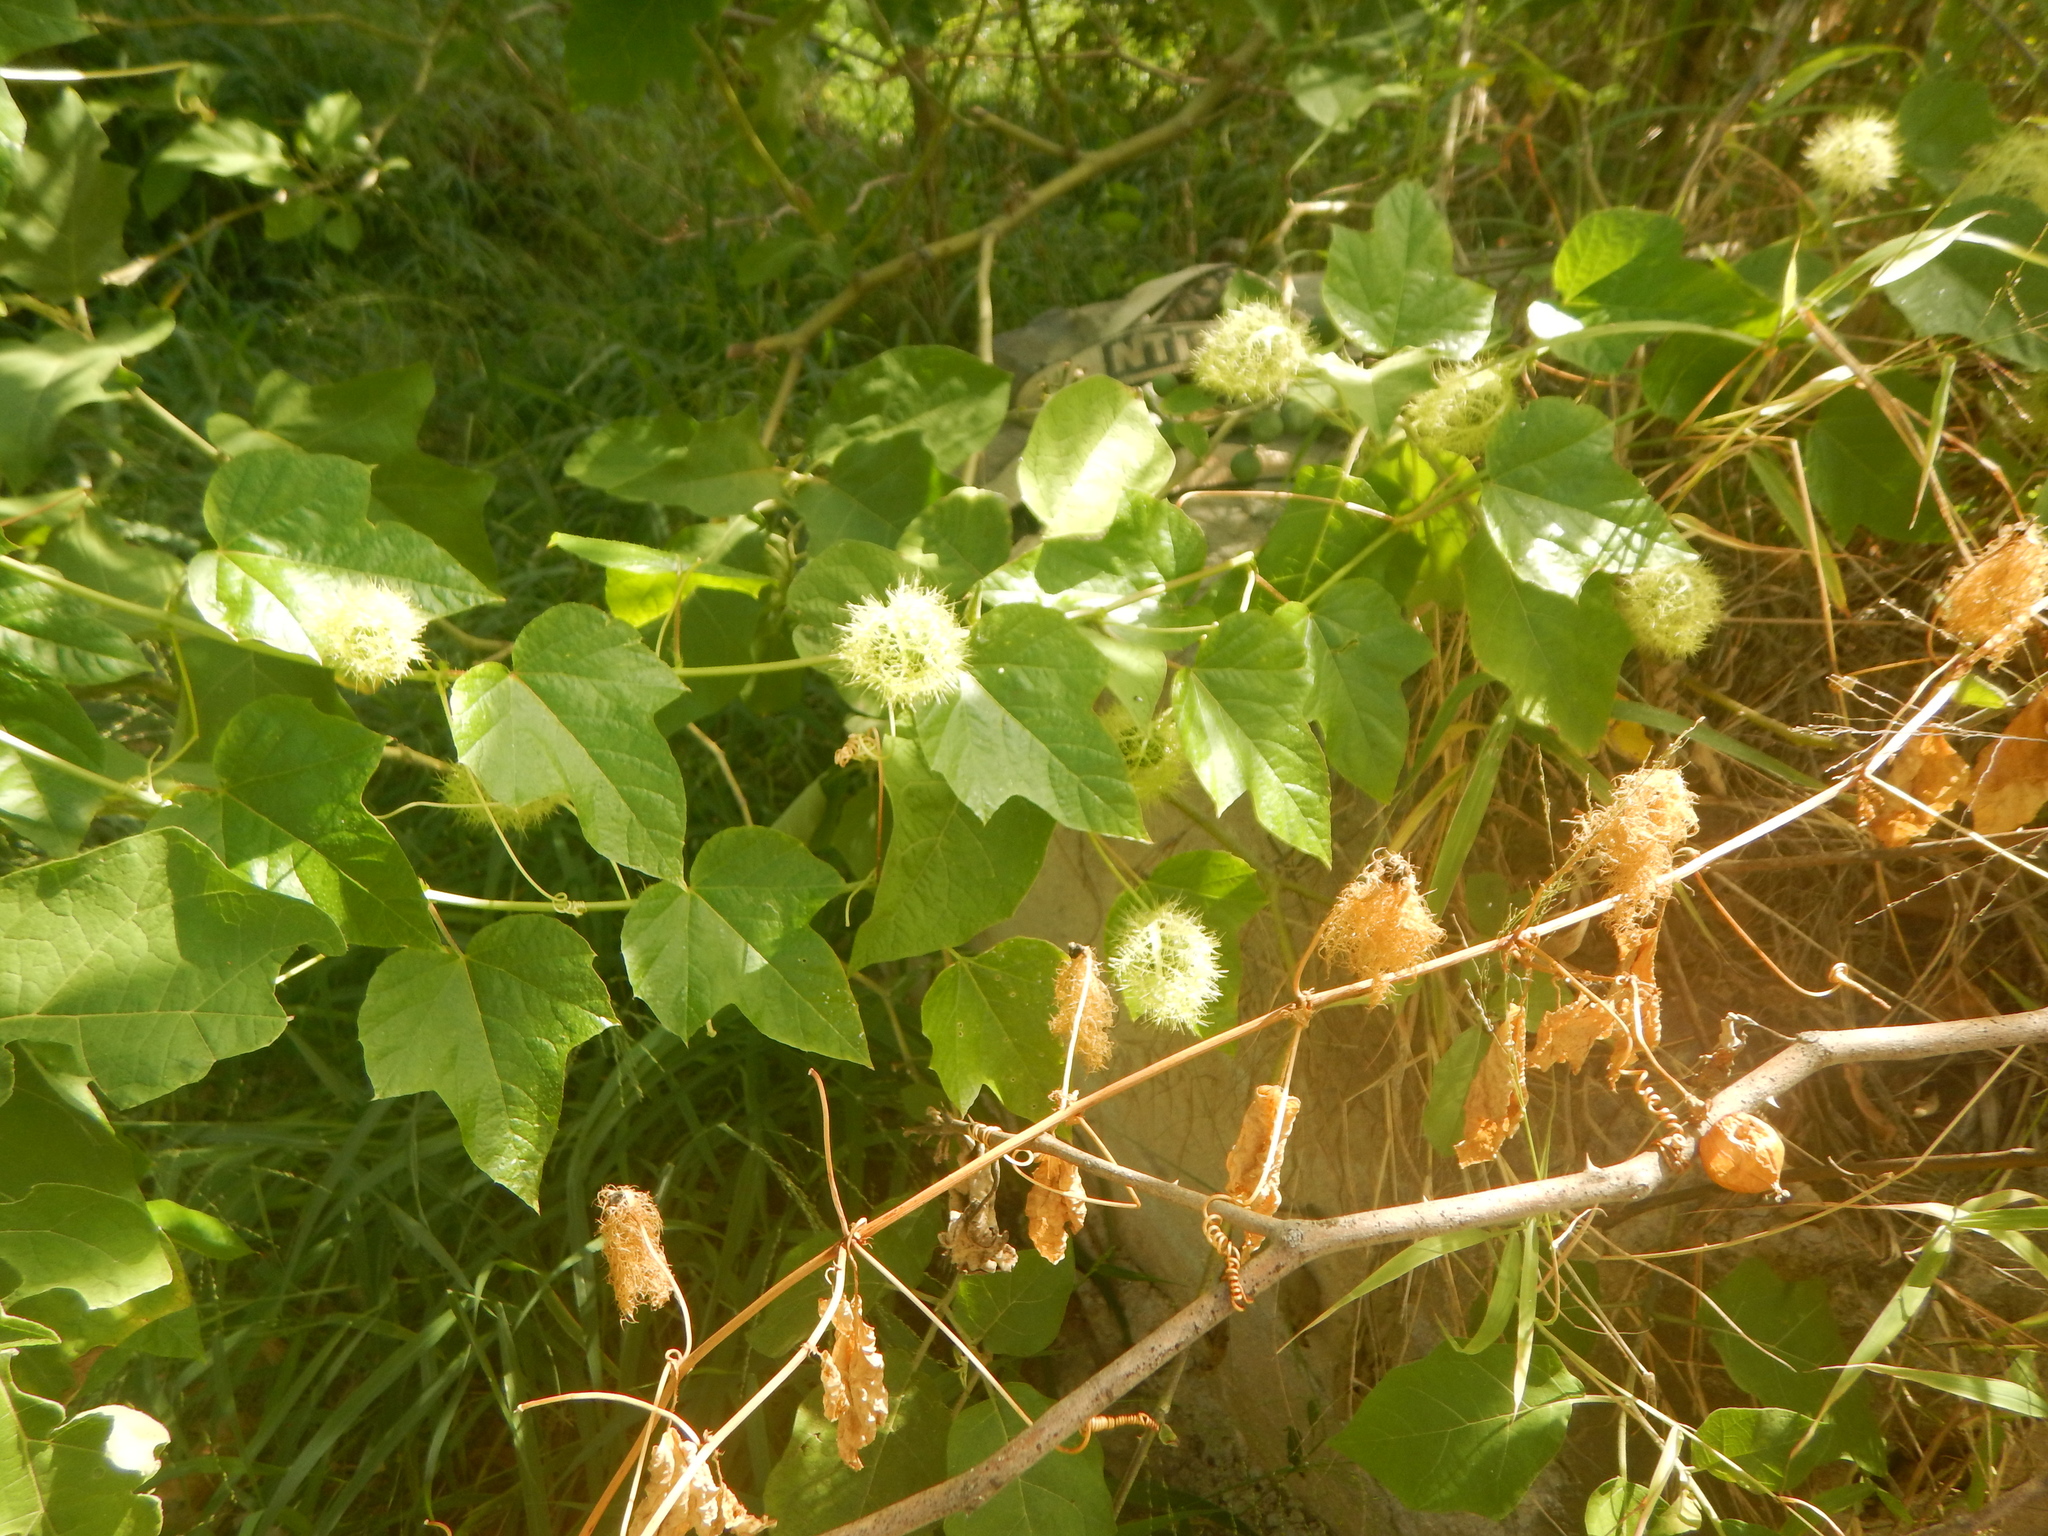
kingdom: Plantae
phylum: Tracheophyta
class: Magnoliopsida
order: Malpighiales
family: Passifloraceae
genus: Passiflora
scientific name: Passiflora foetida
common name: Fetid passionflower
